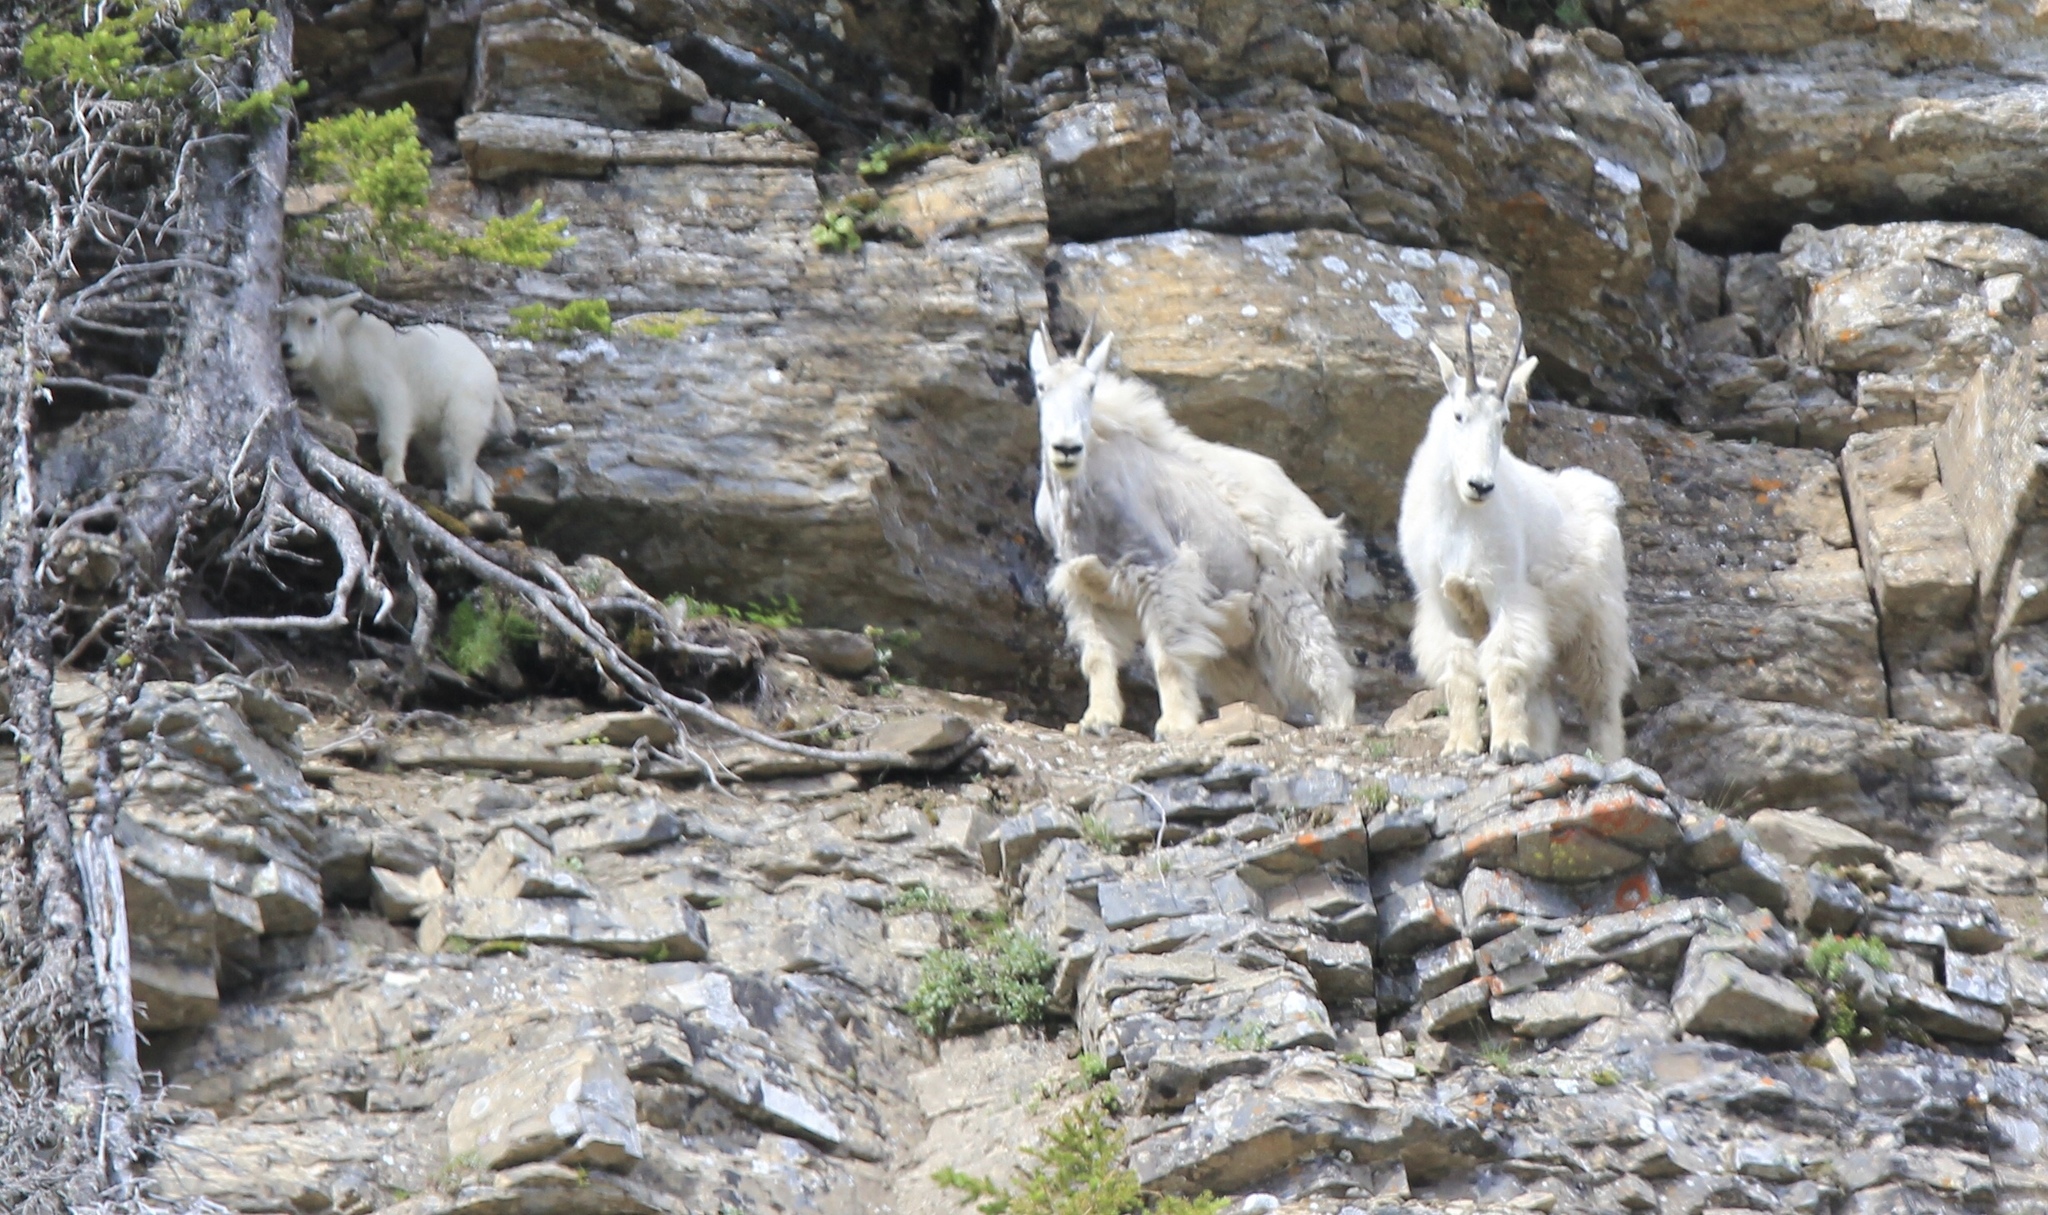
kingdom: Animalia
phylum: Chordata
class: Mammalia
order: Artiodactyla
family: Bovidae
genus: Oreamnos
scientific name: Oreamnos americanus
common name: Mountain goat
